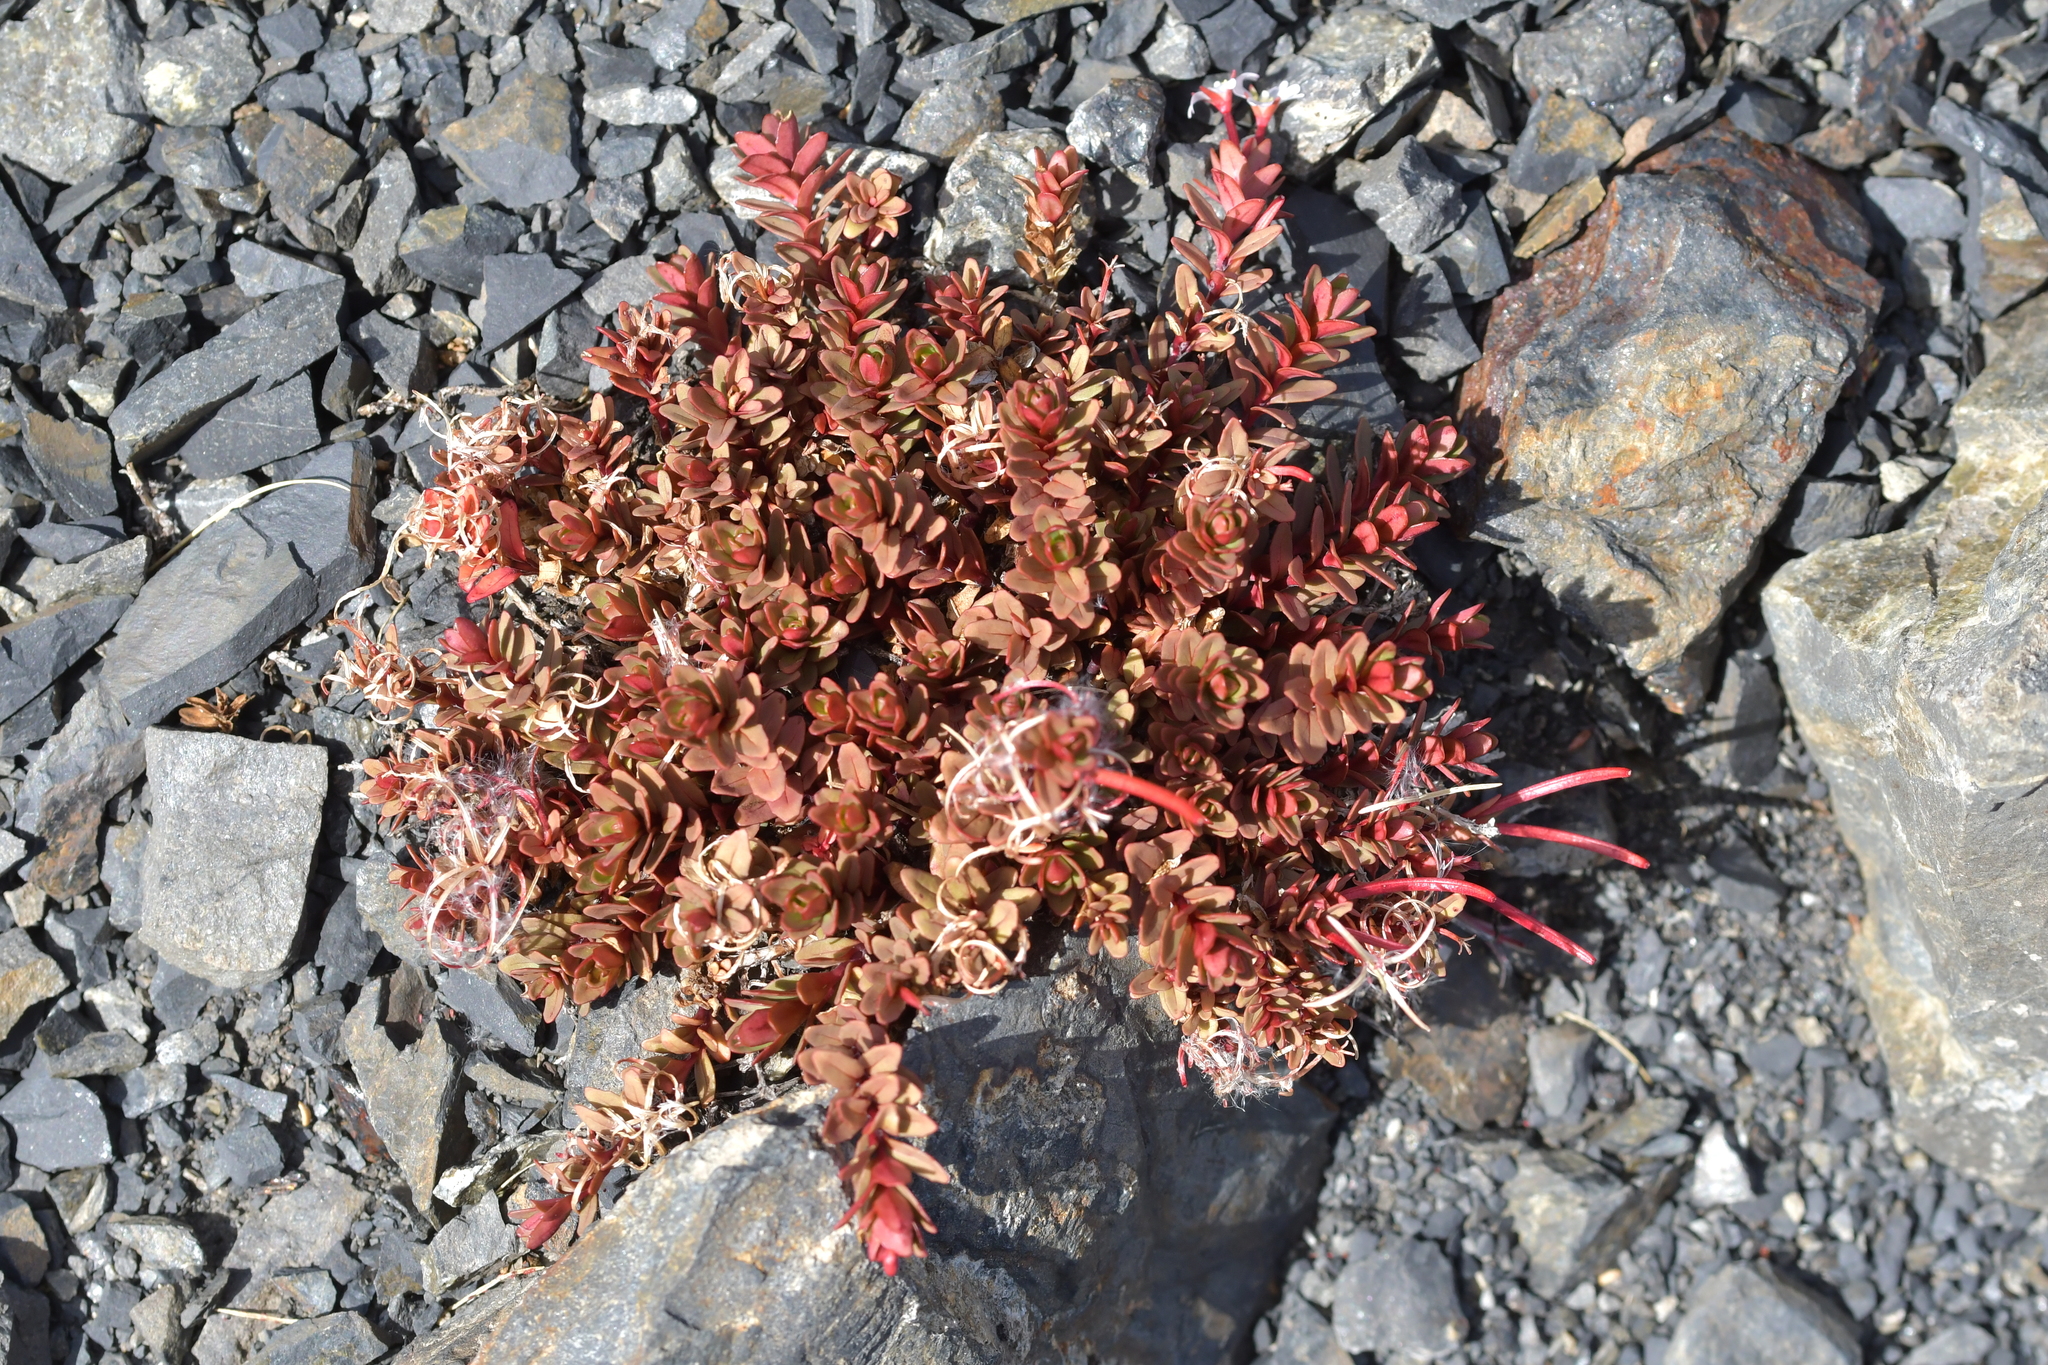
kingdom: Plantae
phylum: Tracheophyta
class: Magnoliopsida
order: Myrtales
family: Onagraceae
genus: Epilobium
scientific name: Epilobium porphyrium
